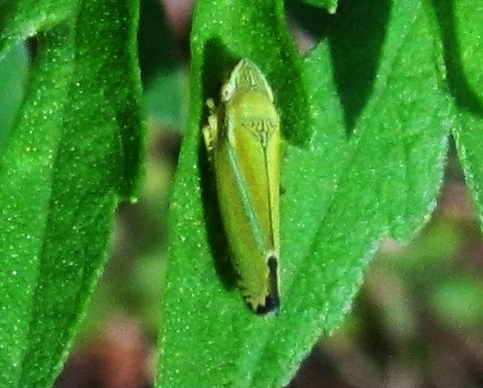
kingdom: Animalia
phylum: Arthropoda
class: Insecta
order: Hemiptera
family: Cicadellidae
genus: Graphocephala
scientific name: Graphocephala versuta
